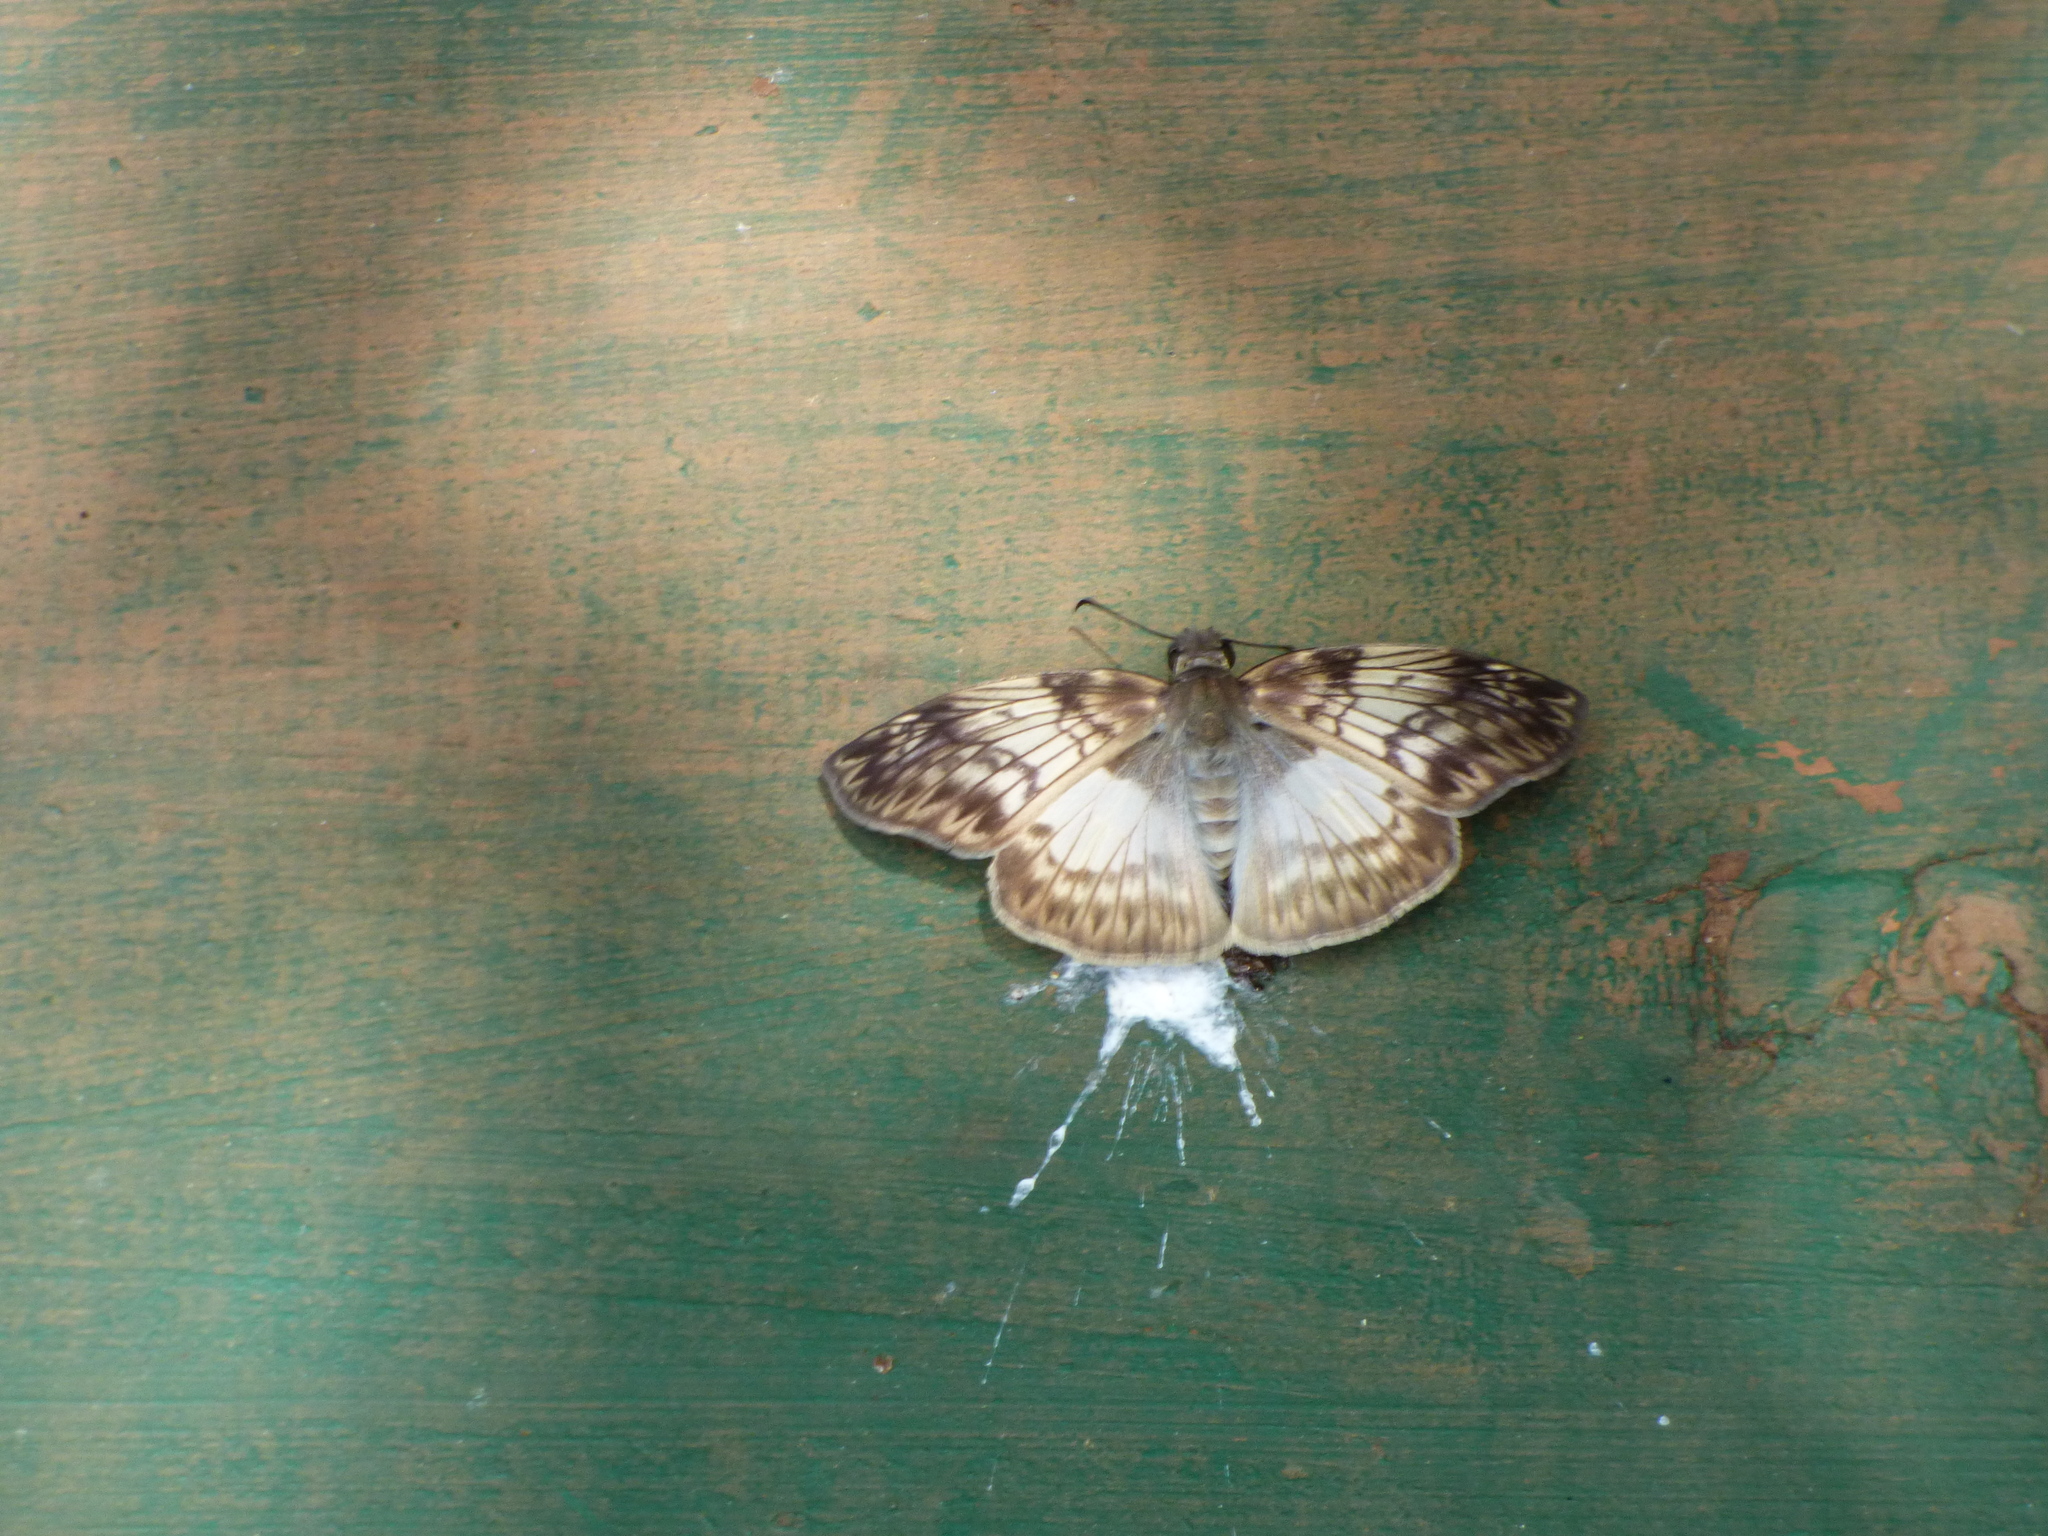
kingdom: Animalia
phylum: Arthropoda
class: Insecta
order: Lepidoptera
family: Hesperiidae
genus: Mylon
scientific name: Mylon maimon
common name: Common mylon
